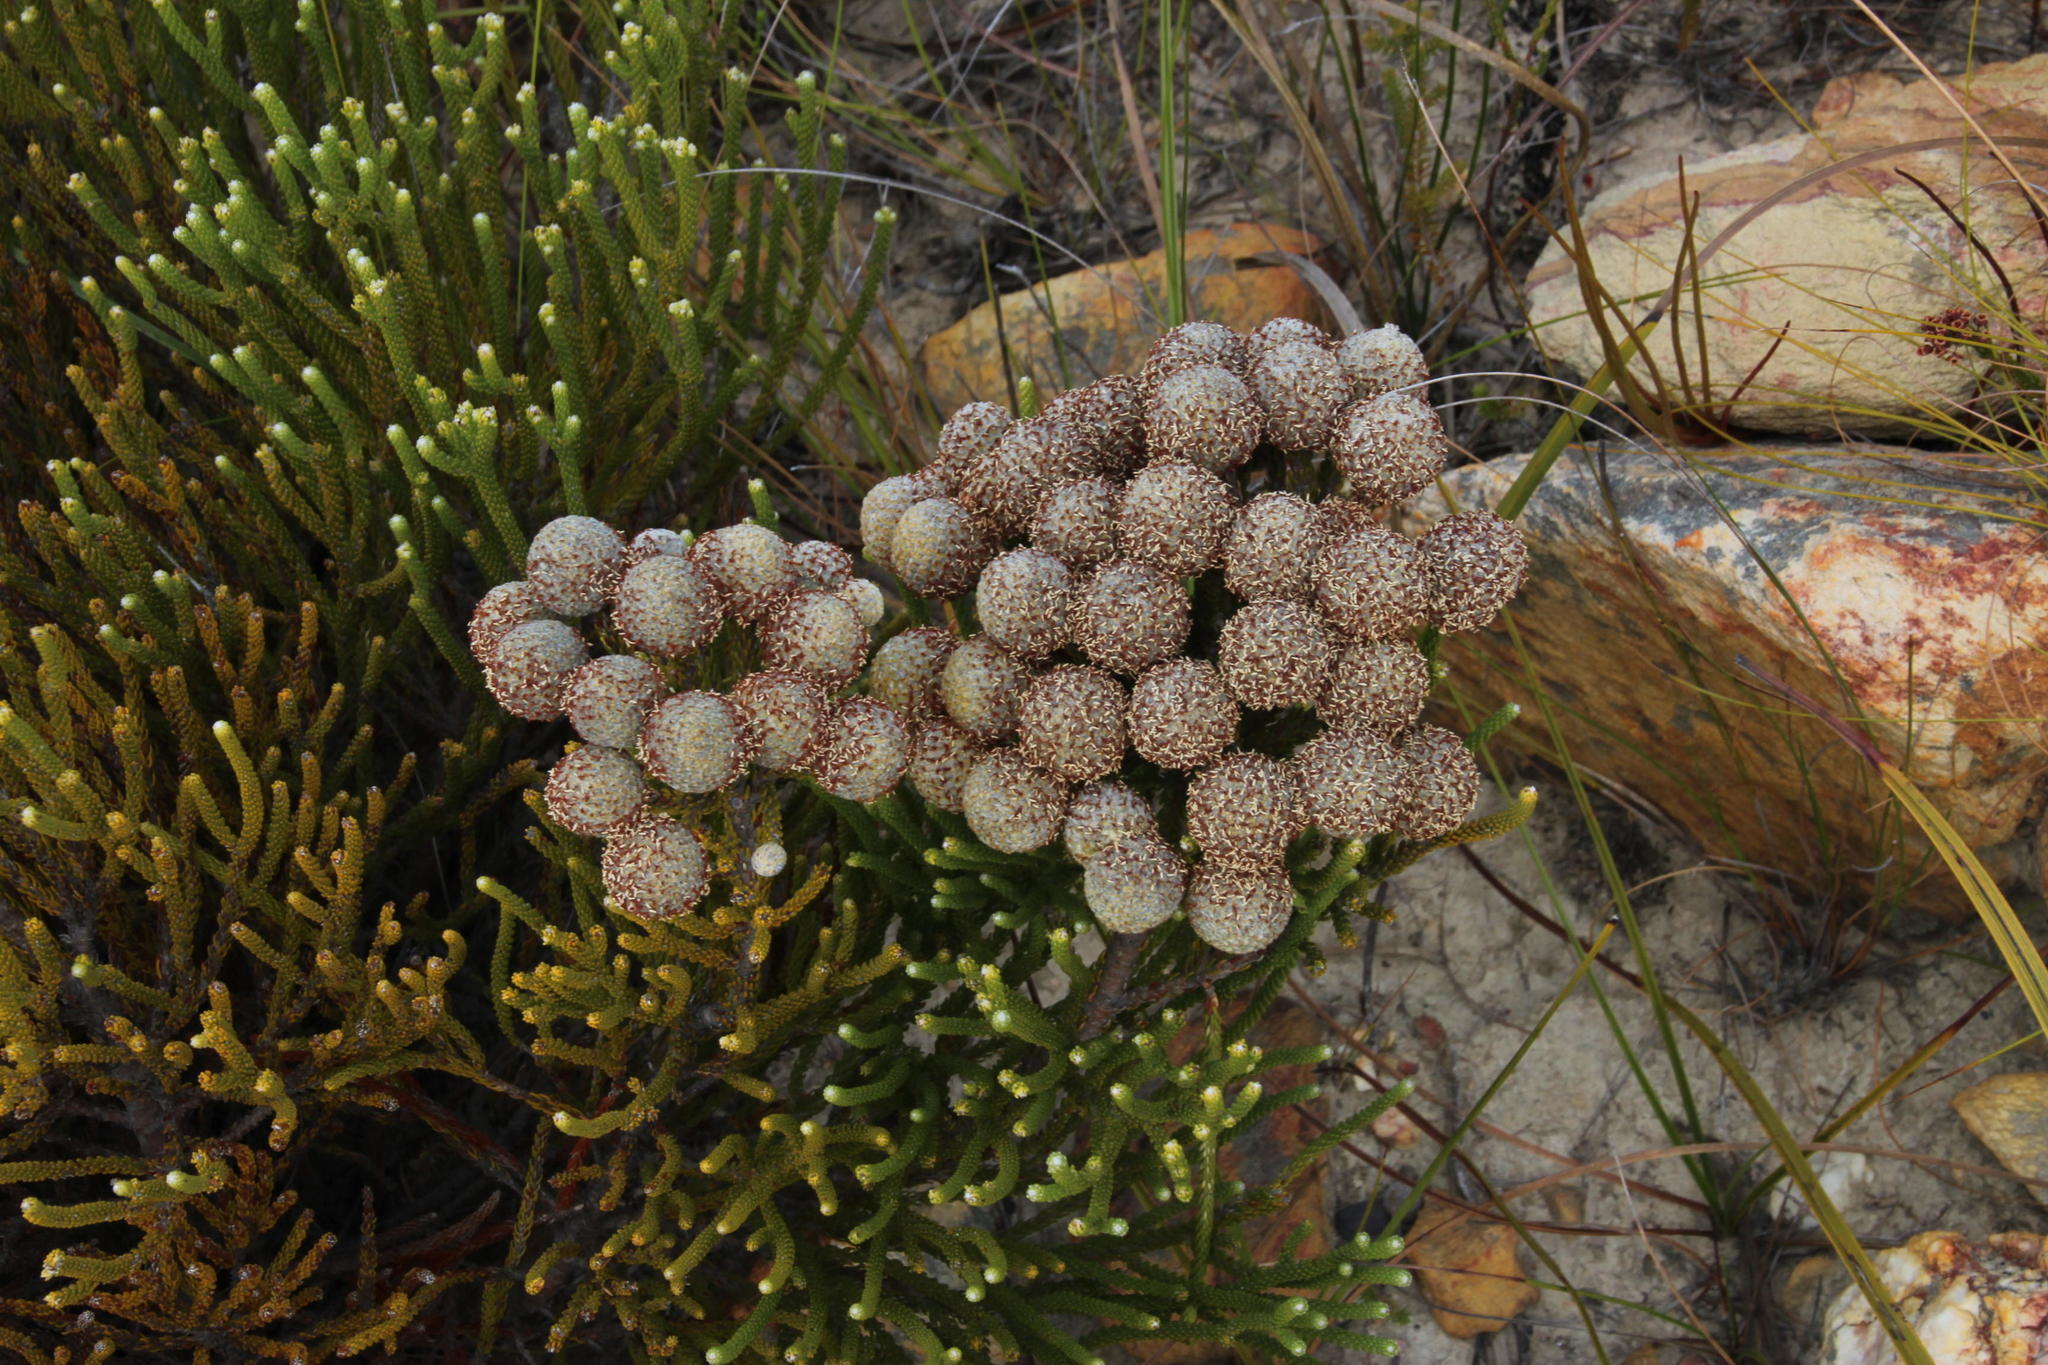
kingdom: Plantae
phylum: Tracheophyta
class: Magnoliopsida
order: Bruniales
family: Bruniaceae
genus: Brunia
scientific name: Brunia noduliflora
